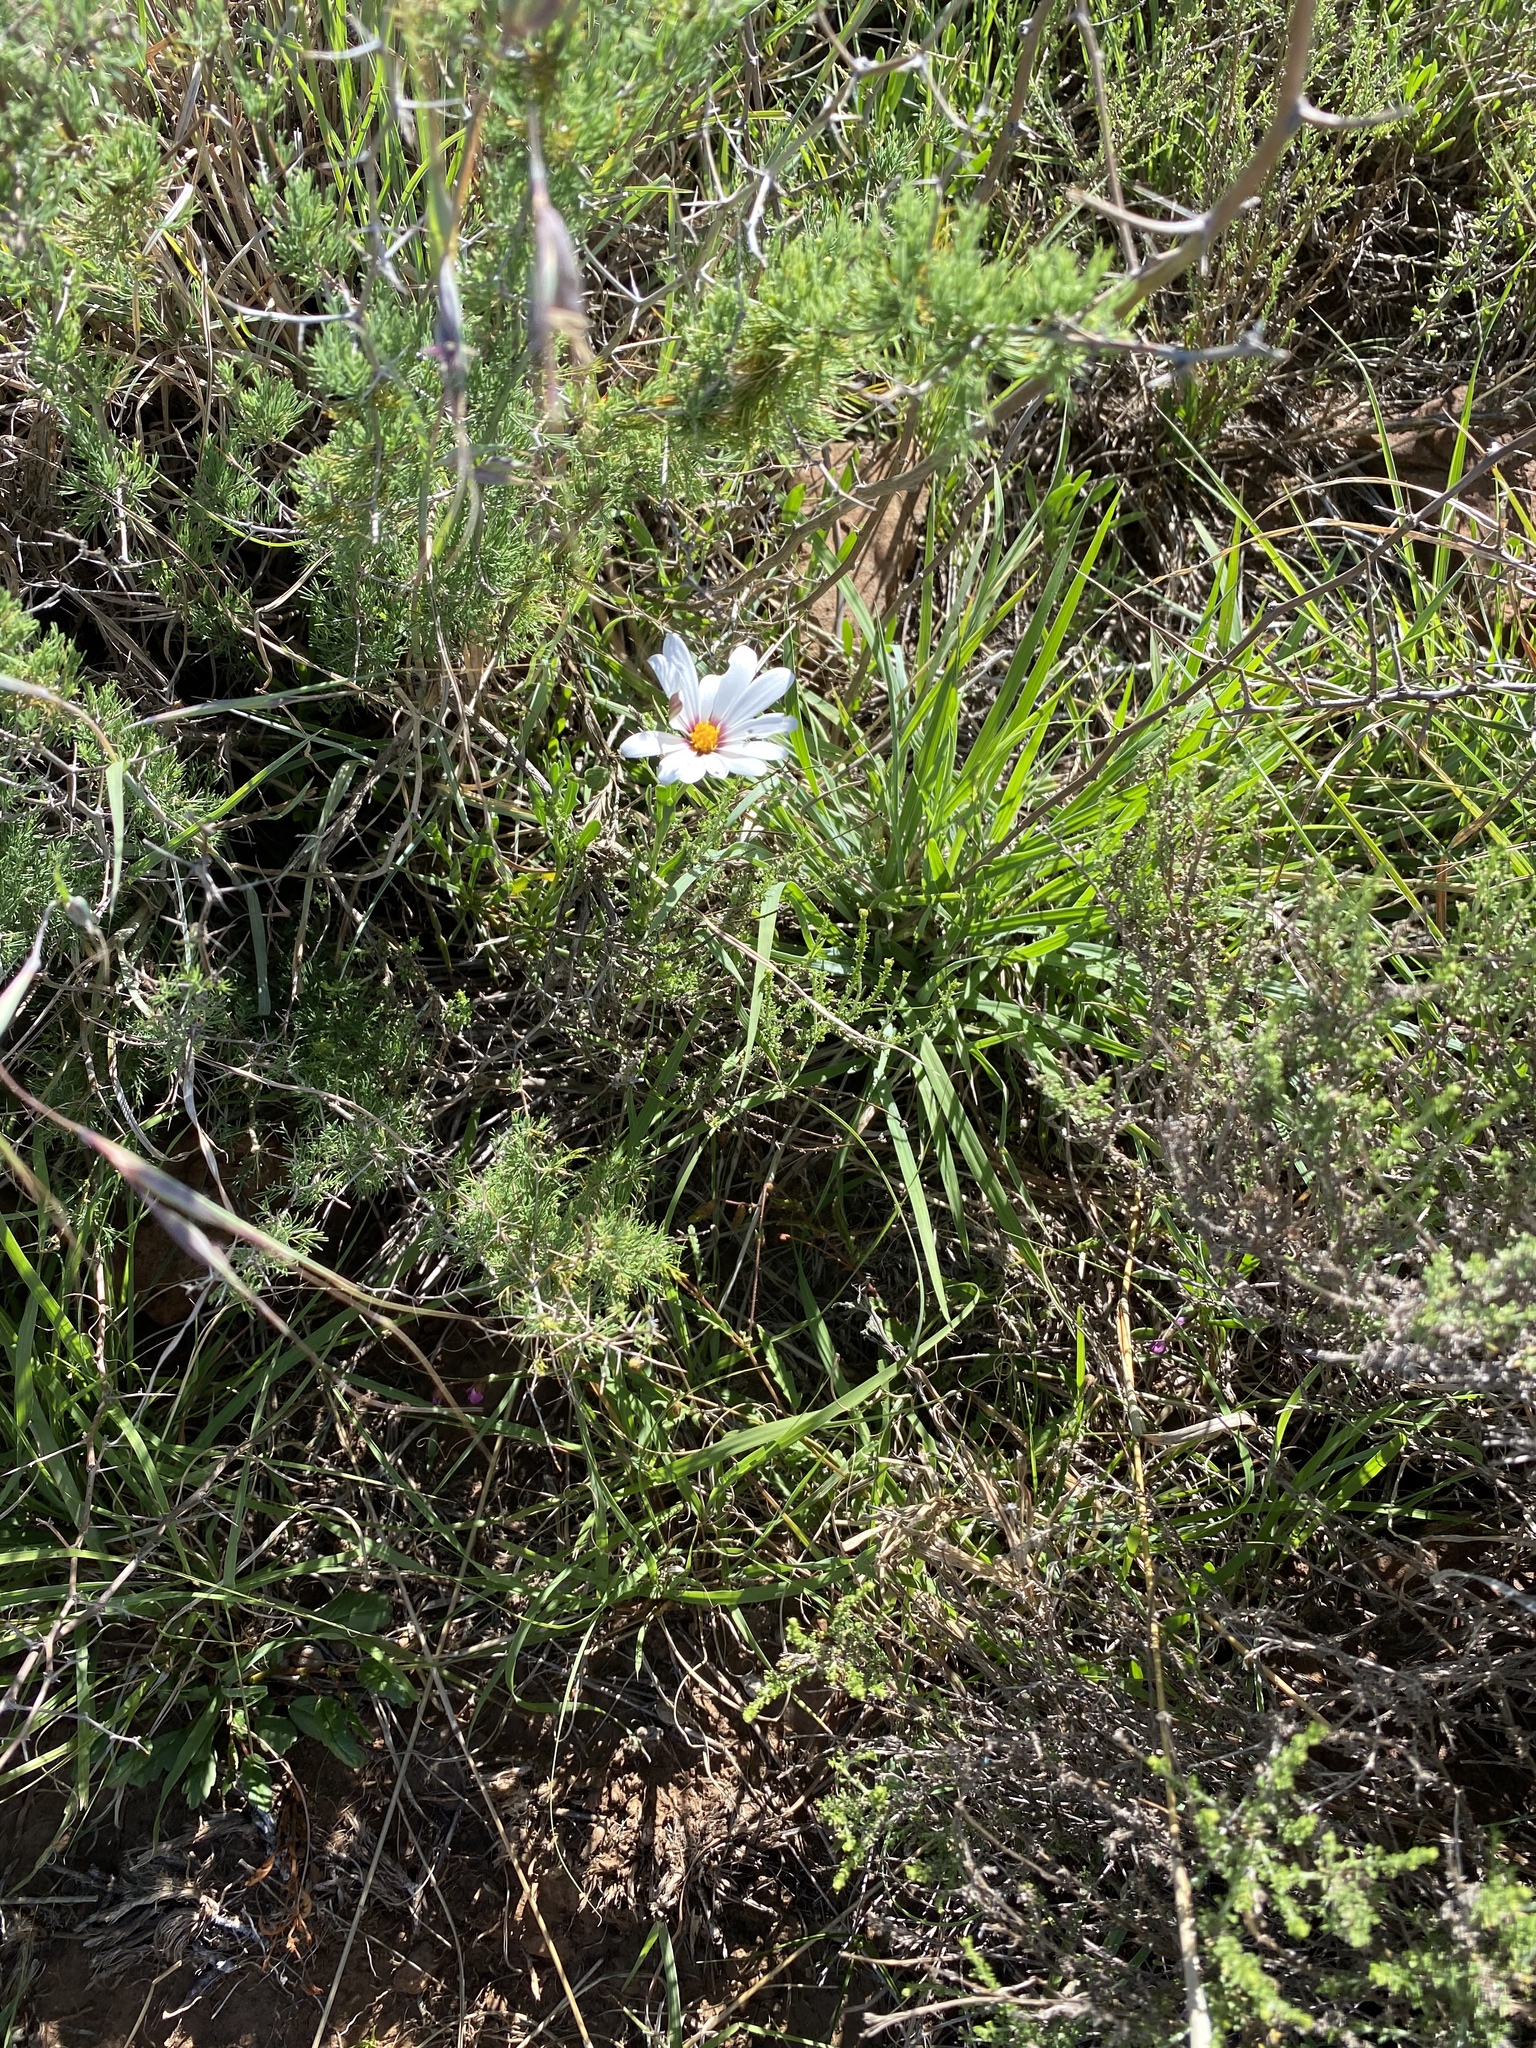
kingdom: Plantae
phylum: Tracheophyta
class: Magnoliopsida
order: Asterales
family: Asteraceae
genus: Dimorphotheca
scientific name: Dimorphotheca zeyheri
